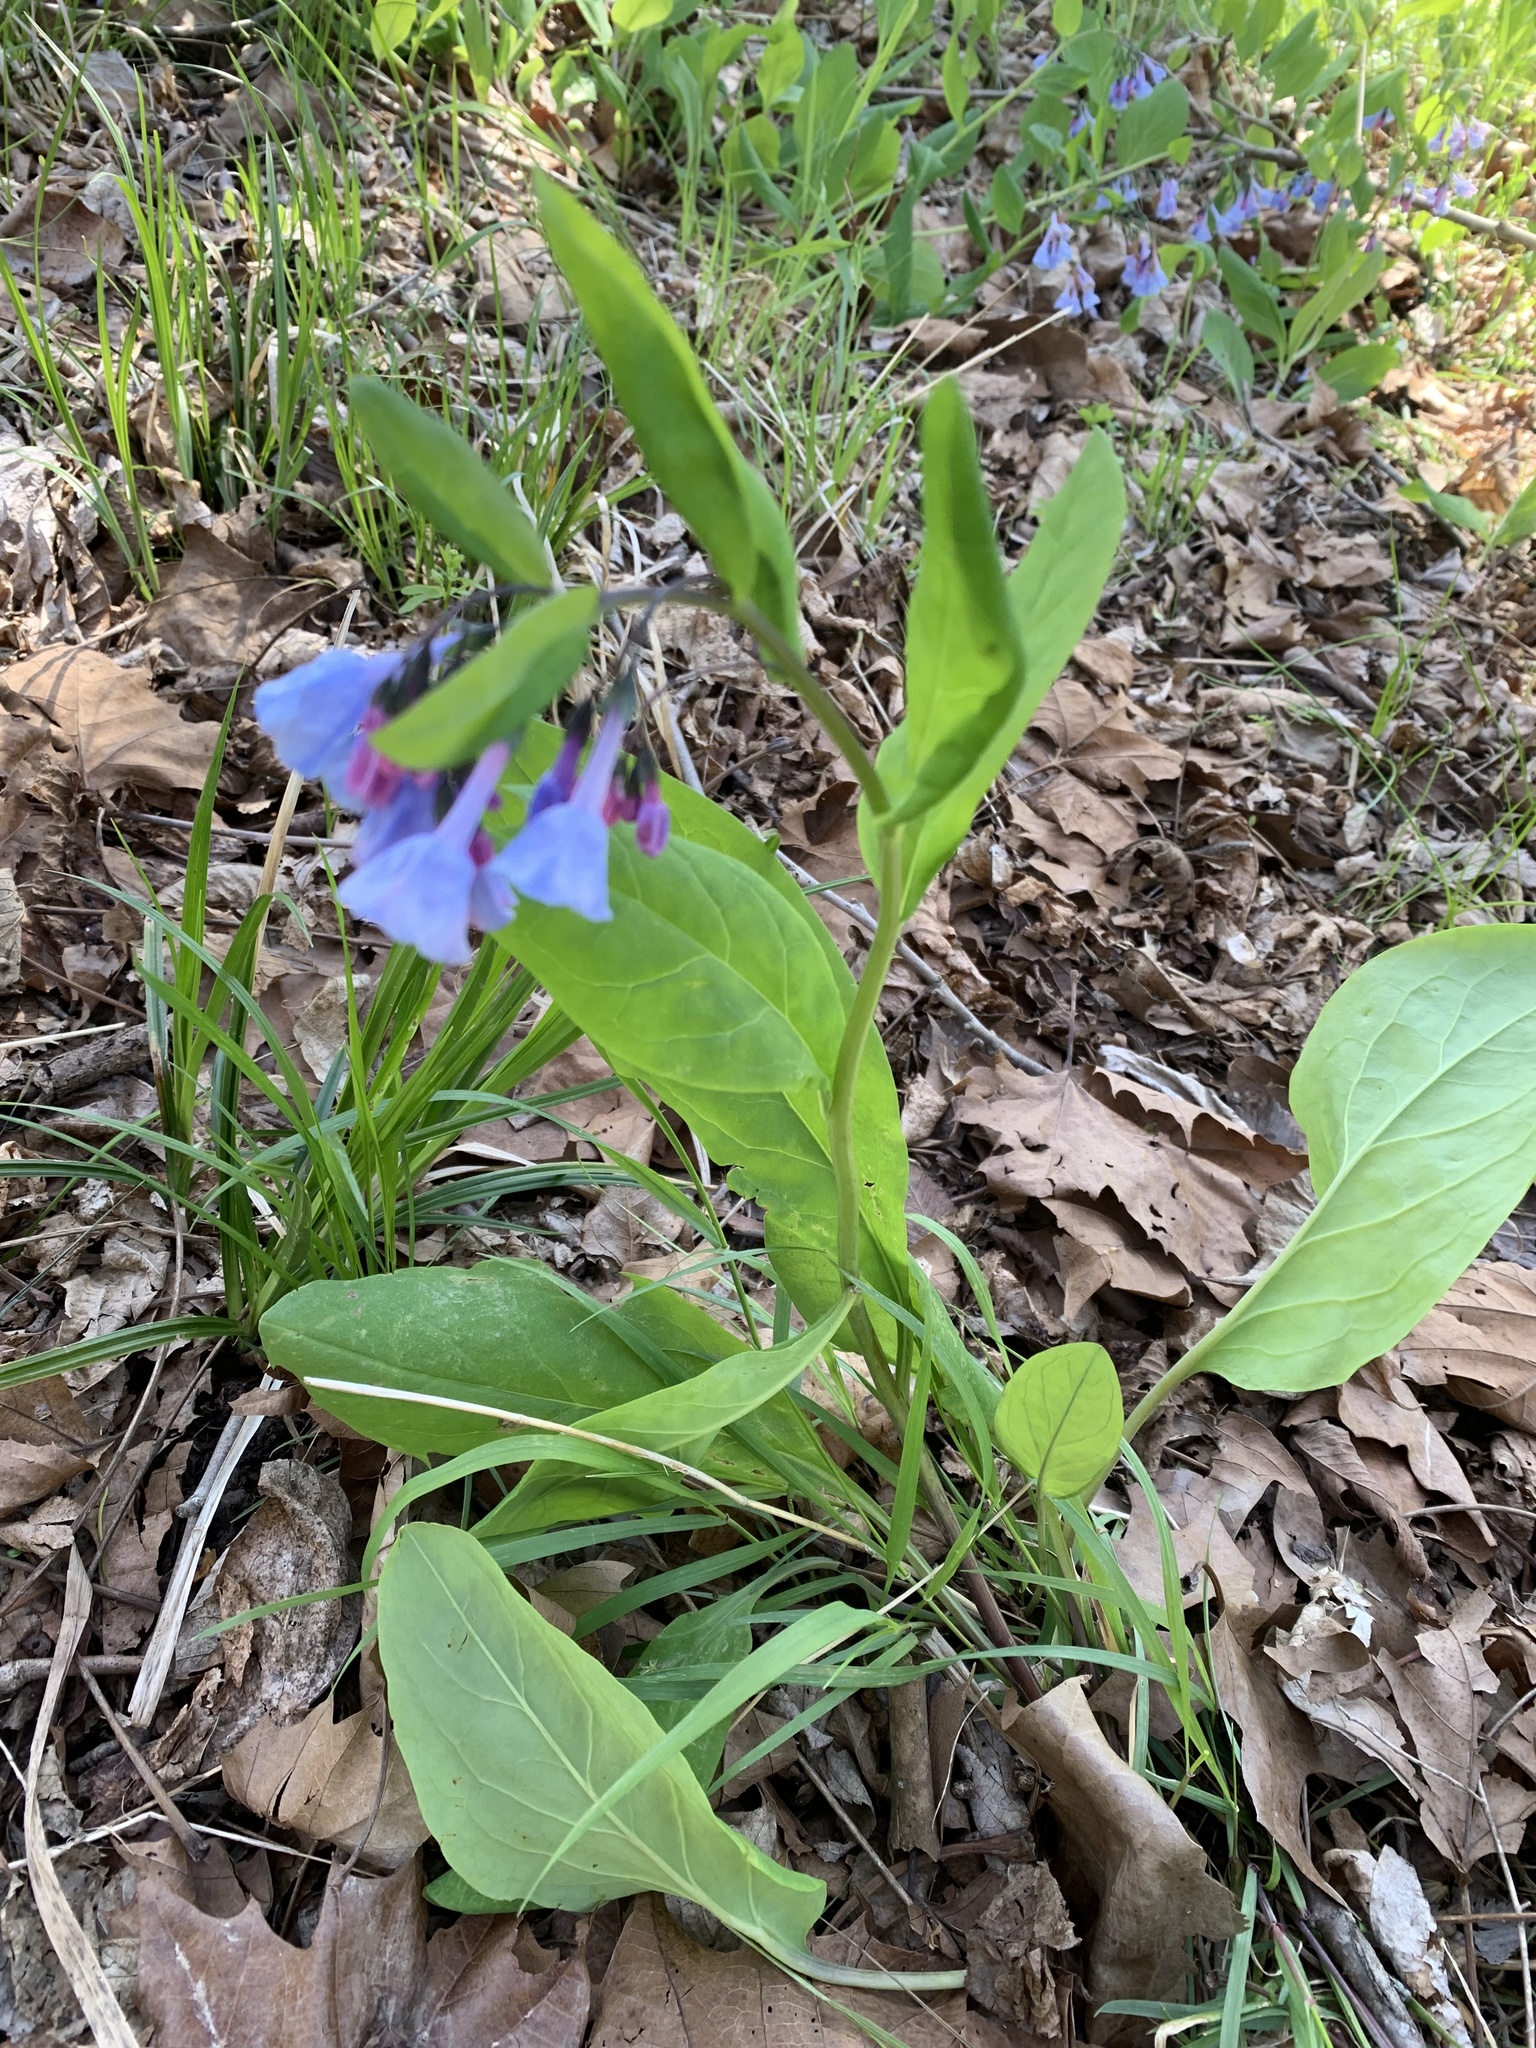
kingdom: Plantae
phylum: Tracheophyta
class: Magnoliopsida
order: Boraginales
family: Boraginaceae
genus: Mertensia
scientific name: Mertensia virginica
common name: Virginia bluebells
